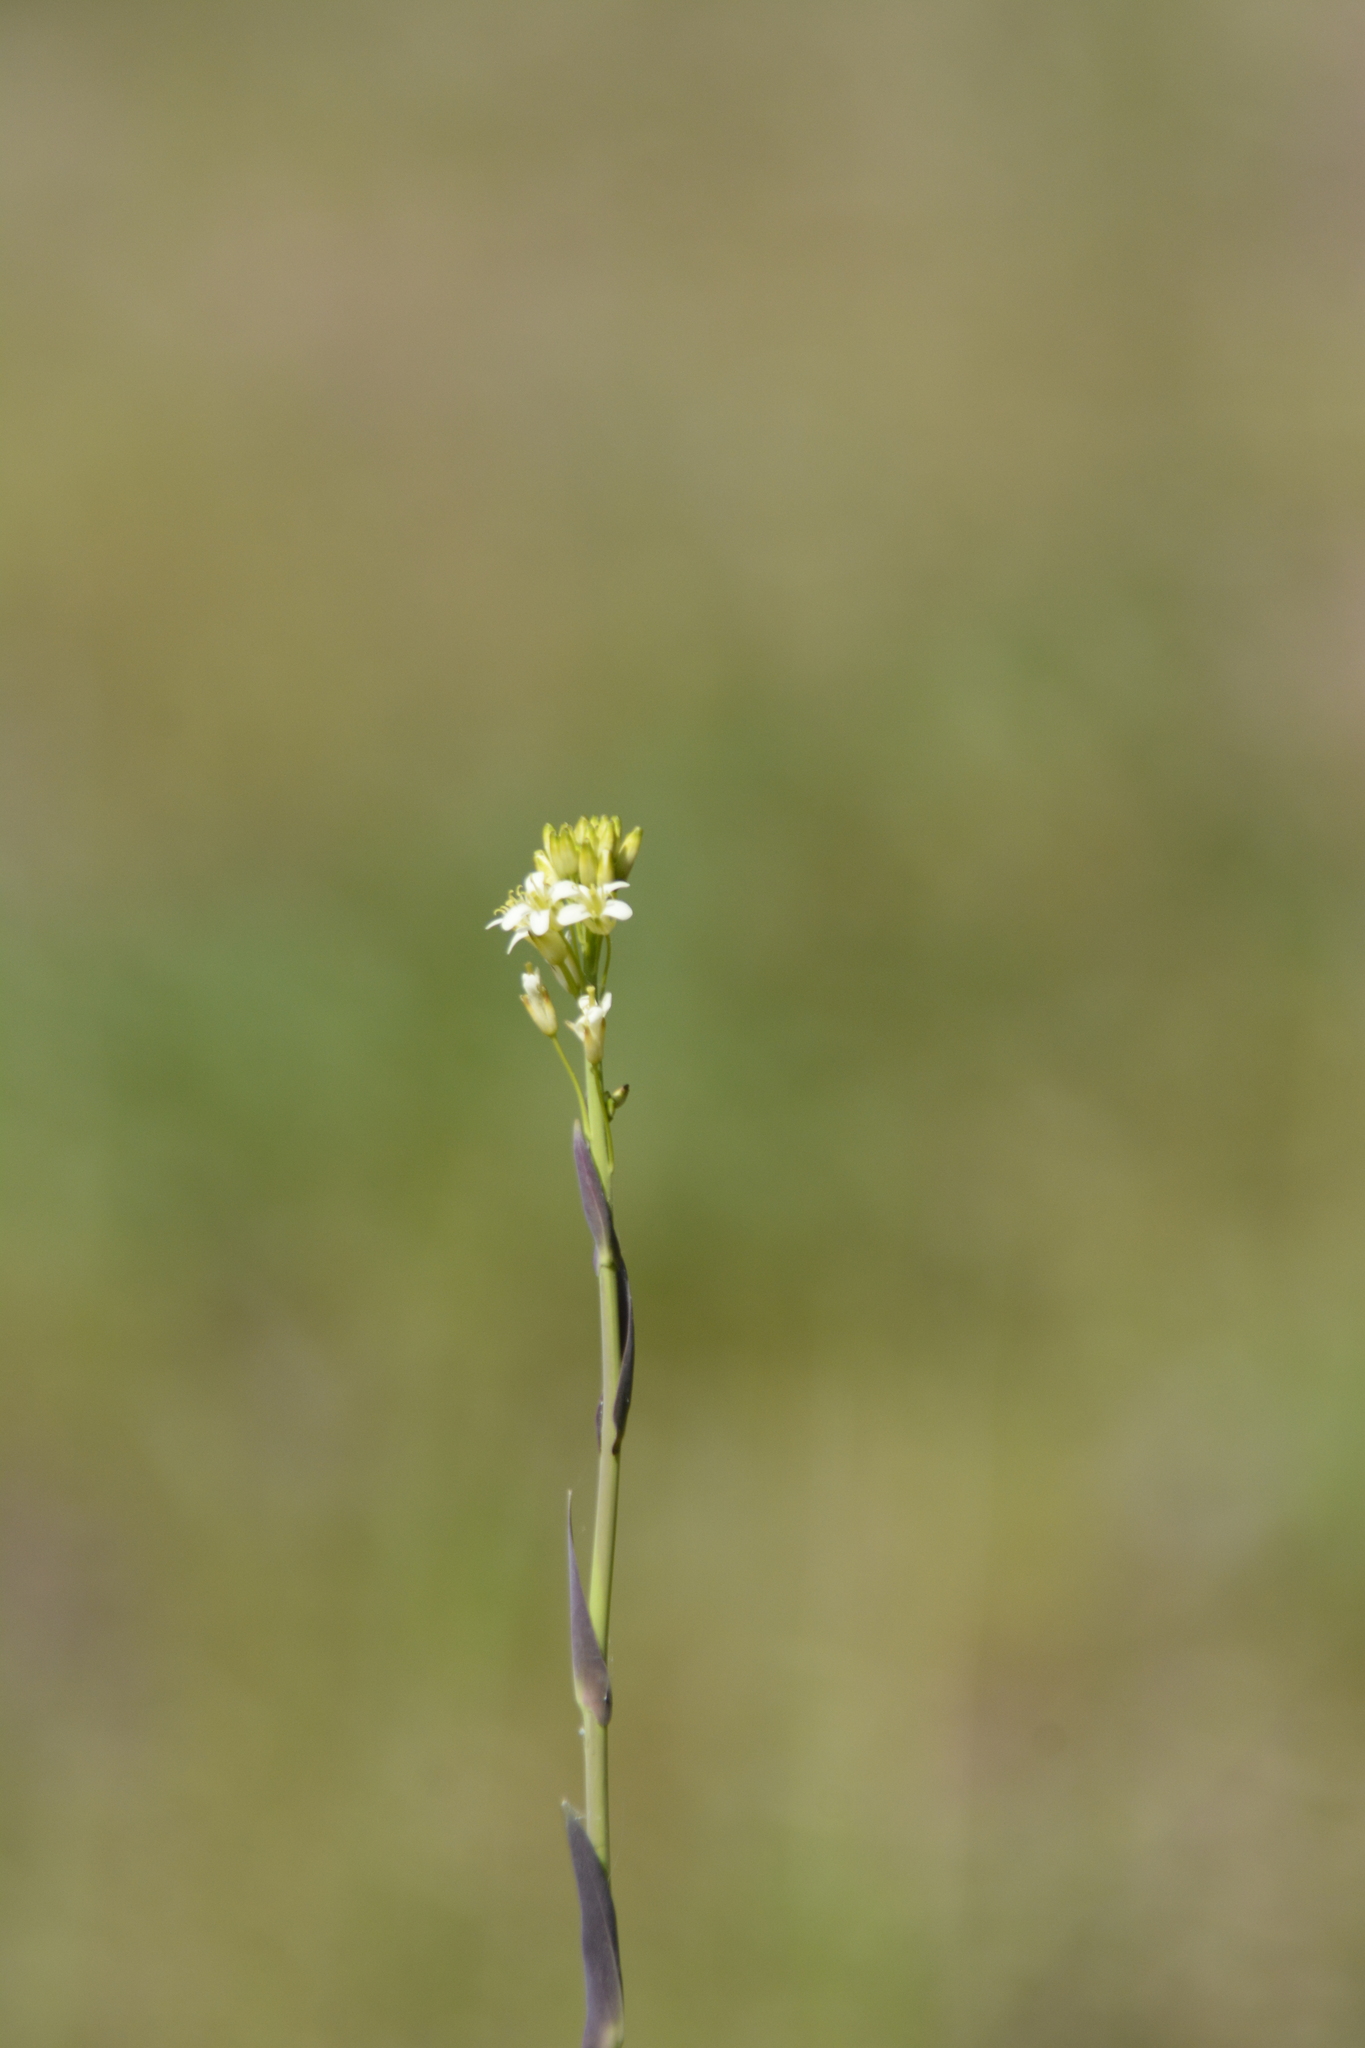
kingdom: Plantae
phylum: Tracheophyta
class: Magnoliopsida
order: Brassicales
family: Brassicaceae
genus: Turritis
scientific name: Turritis glabra
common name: Tower rockcress
